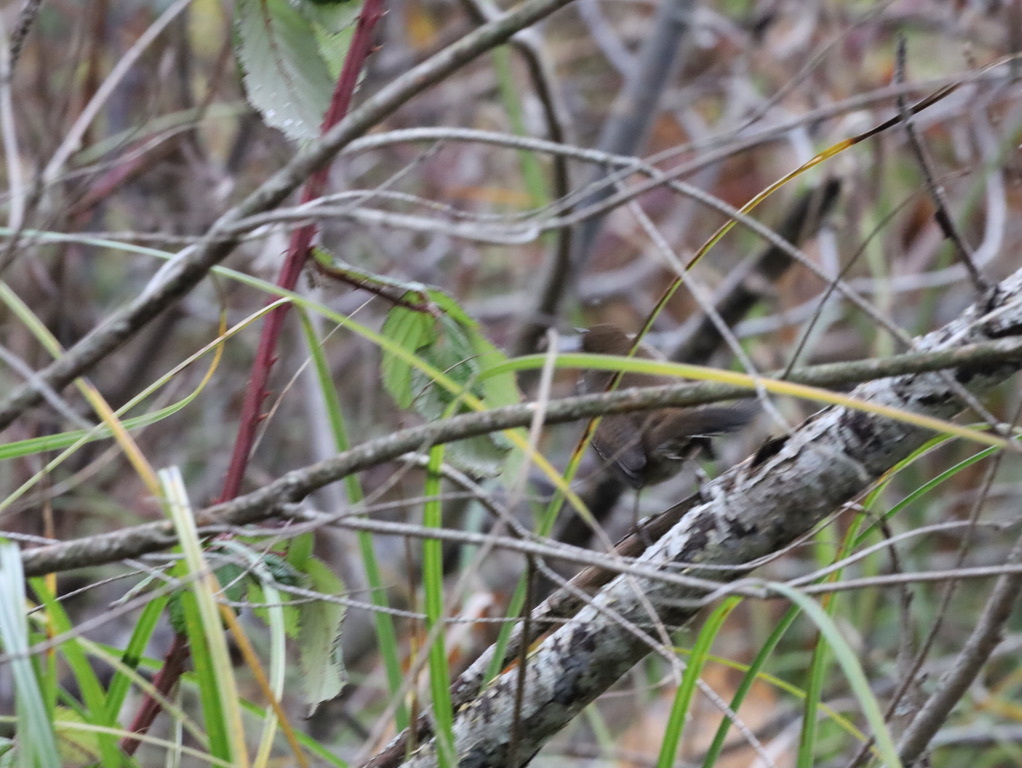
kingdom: Animalia
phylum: Chordata
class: Aves
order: Passeriformes
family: Troglodytidae
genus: Thryomanes
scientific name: Thryomanes bewickii
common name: Bewick's wren
